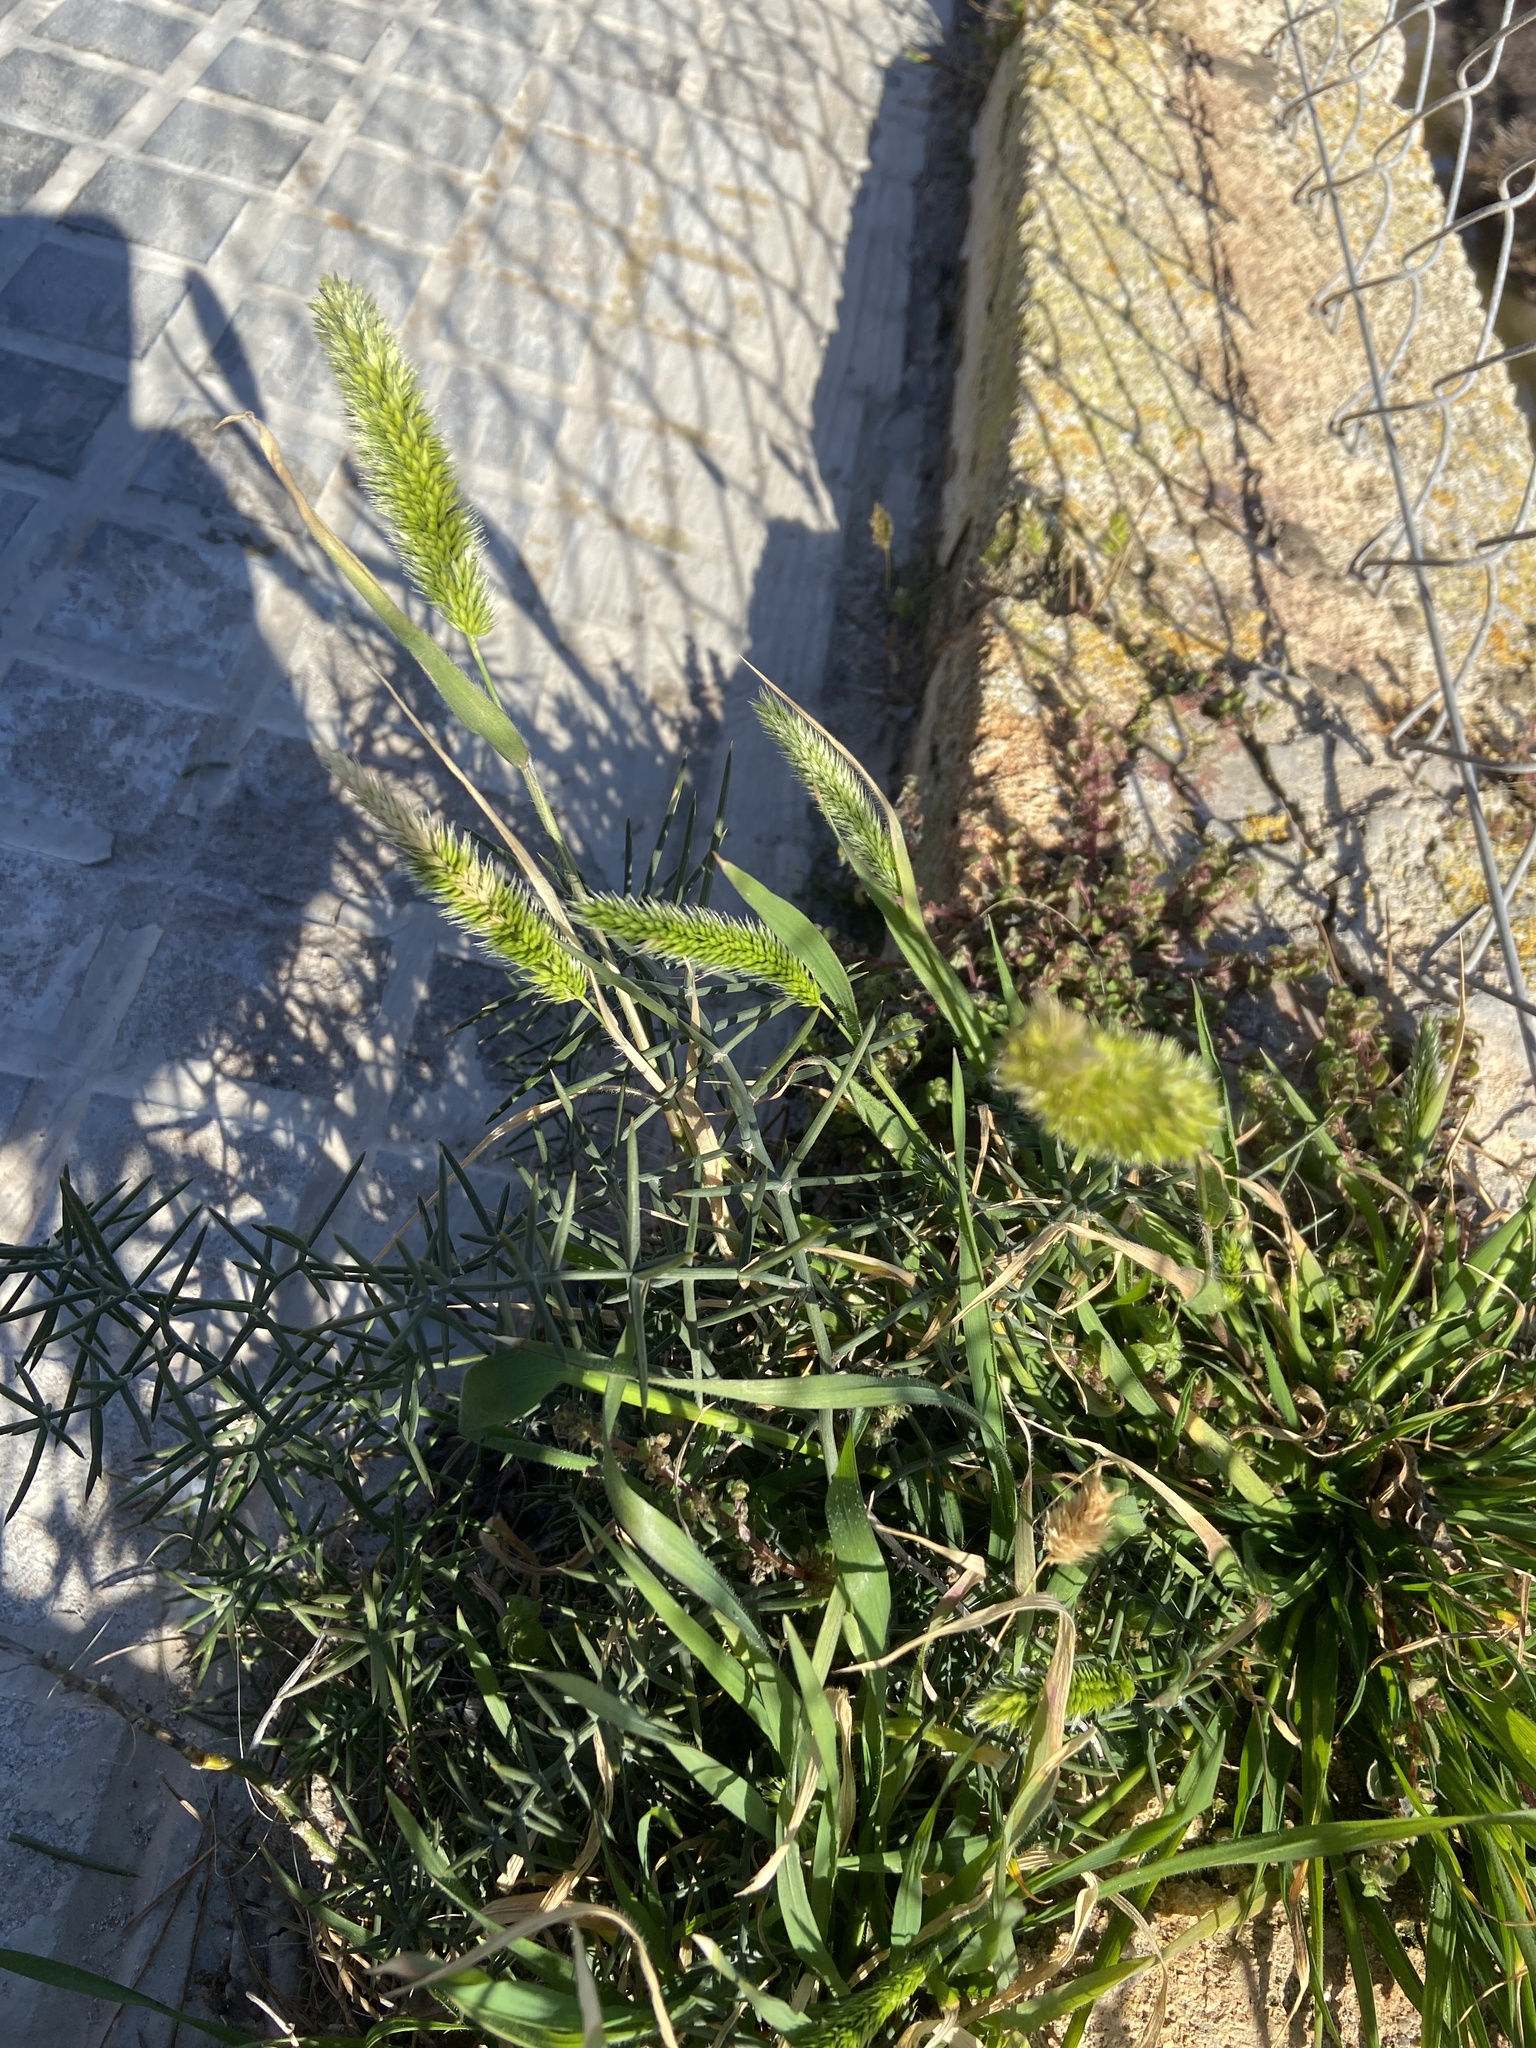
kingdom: Plantae
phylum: Tracheophyta
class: Liliopsida
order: Poales
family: Poaceae
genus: Rostraria
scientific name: Rostraria cristata
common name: Mediterranean hair-grass
